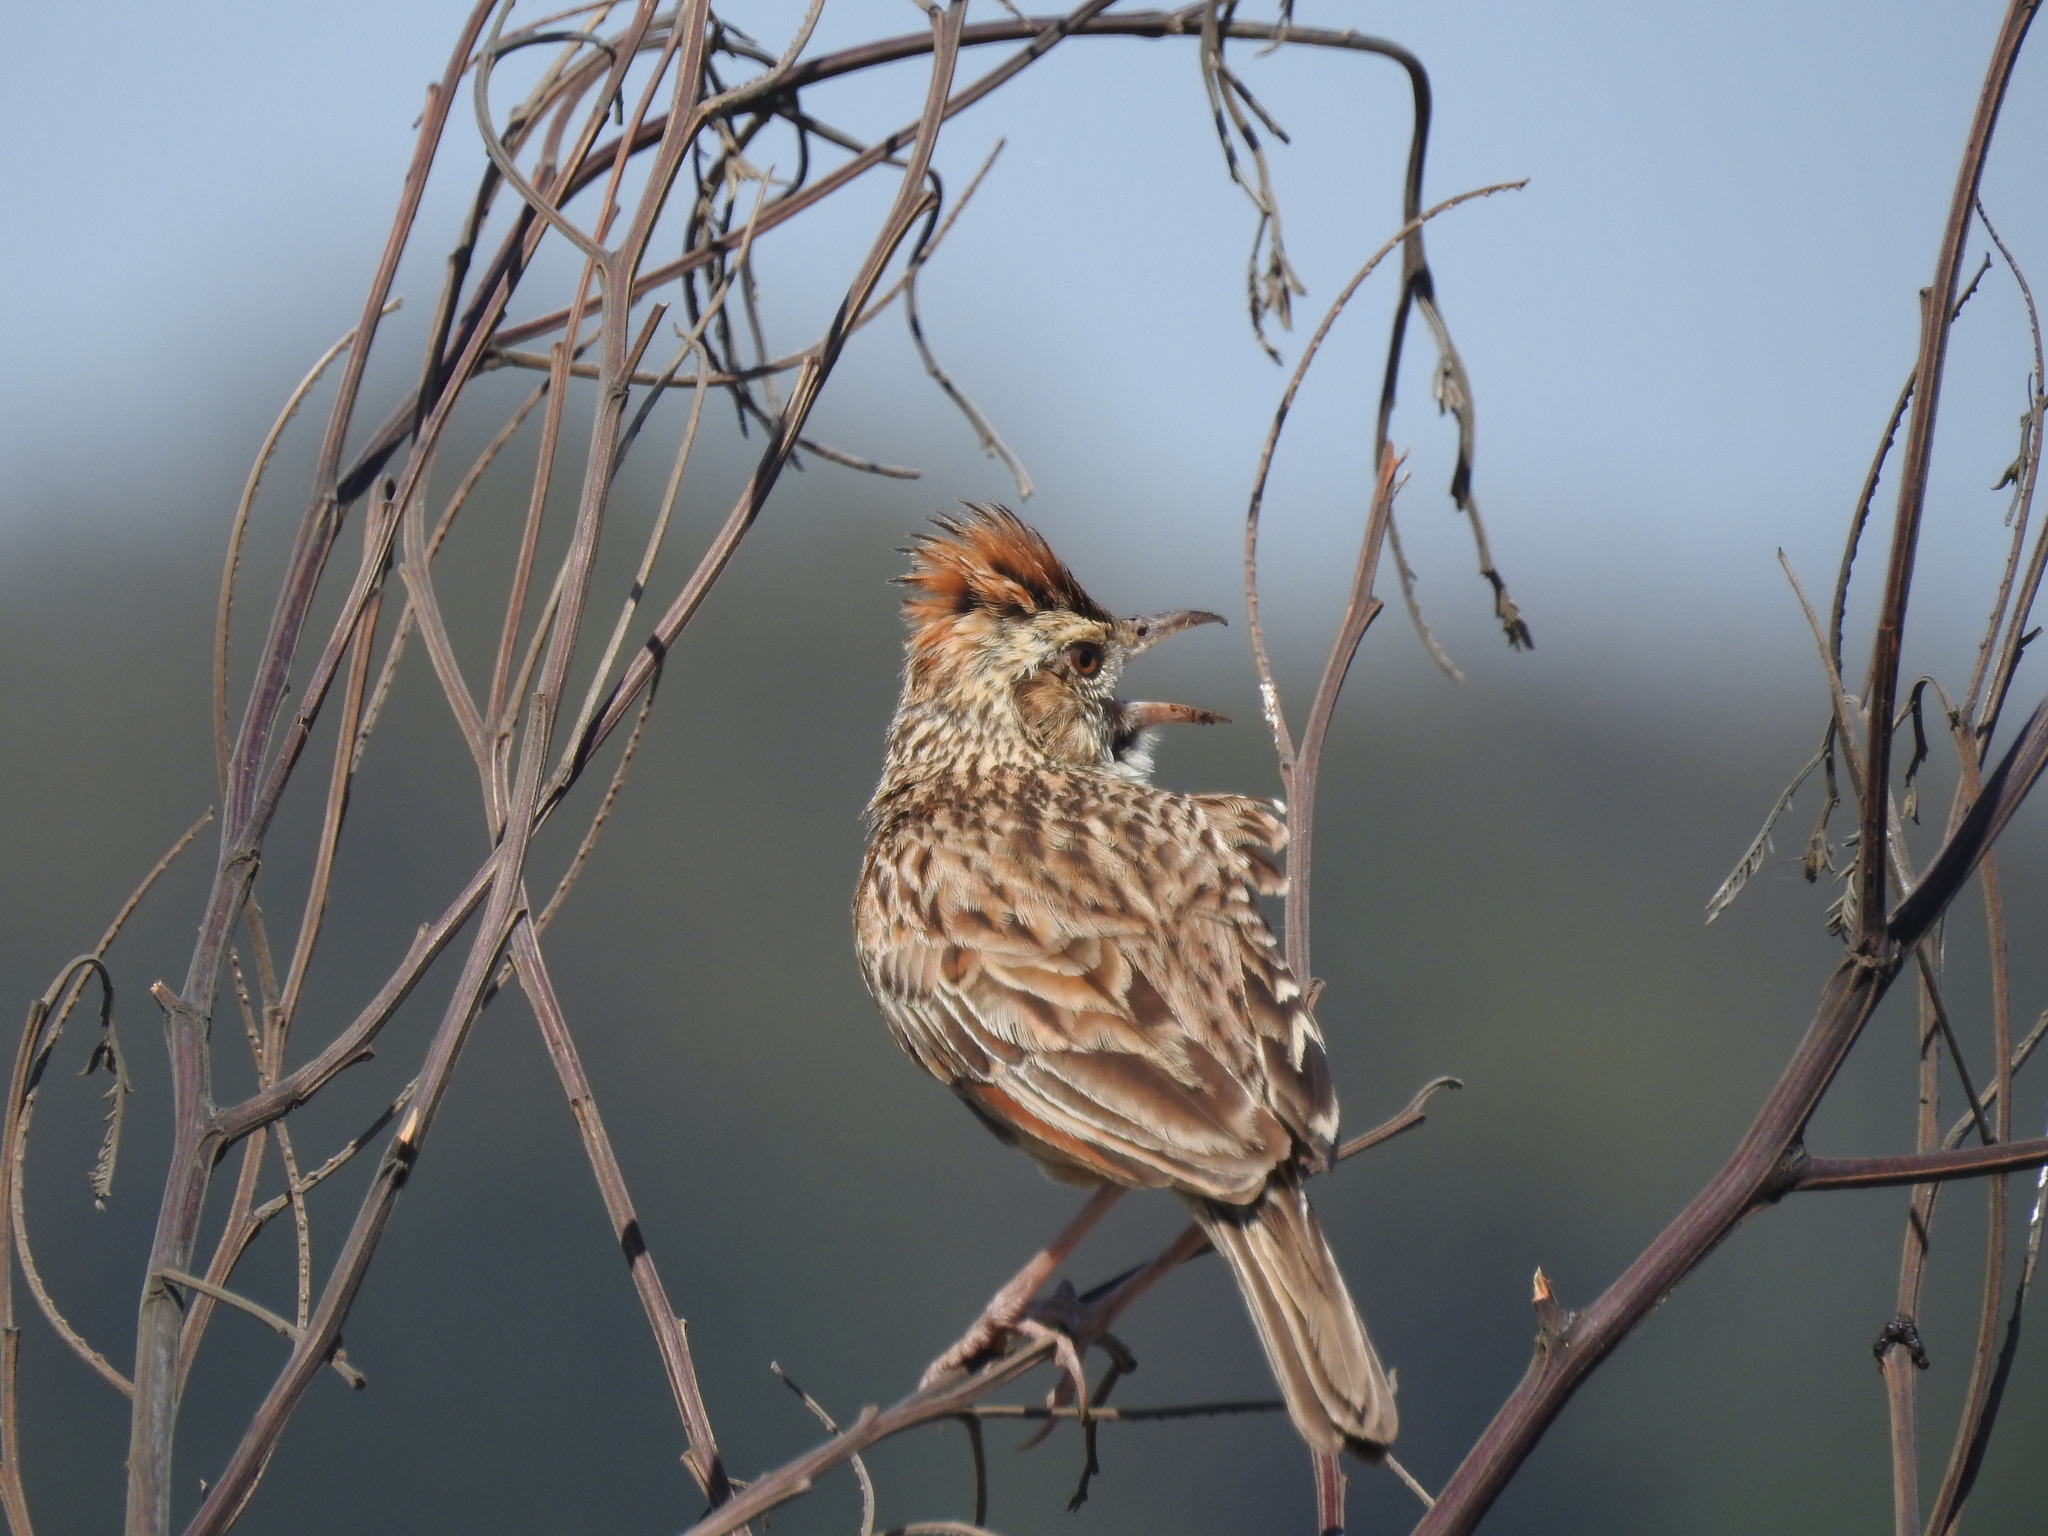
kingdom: Animalia
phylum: Chordata
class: Aves
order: Passeriformes
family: Alaudidae
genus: Mirafra
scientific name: Mirafra africana
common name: Rufous-naped lark
